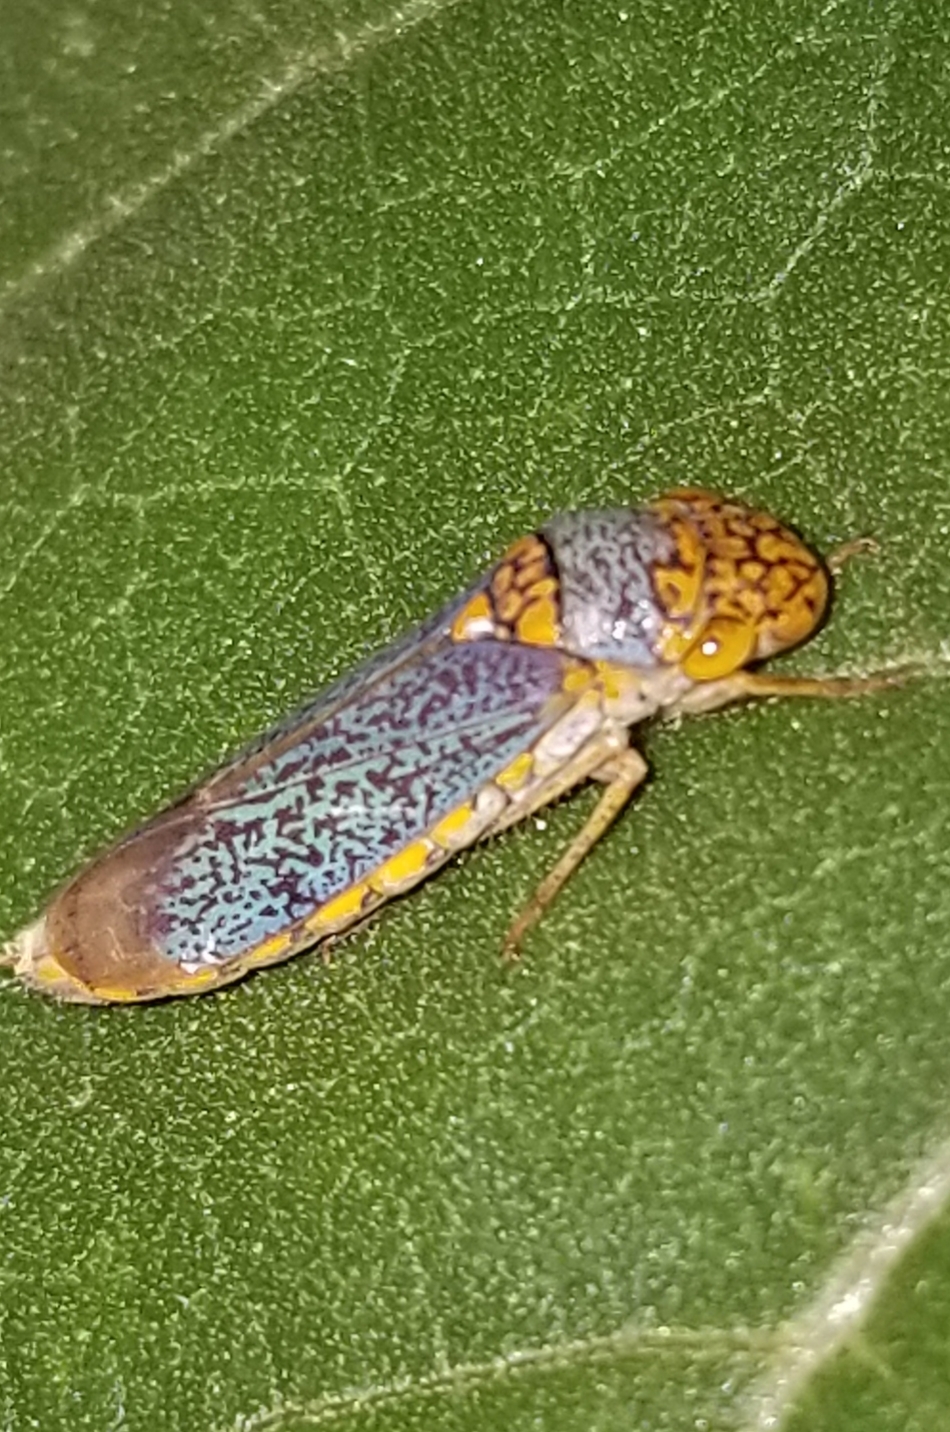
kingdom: Animalia
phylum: Arthropoda
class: Insecta
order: Hemiptera
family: Cicadellidae
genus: Oncometopia
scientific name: Oncometopia orbona
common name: Broad-headed sharpshooter
